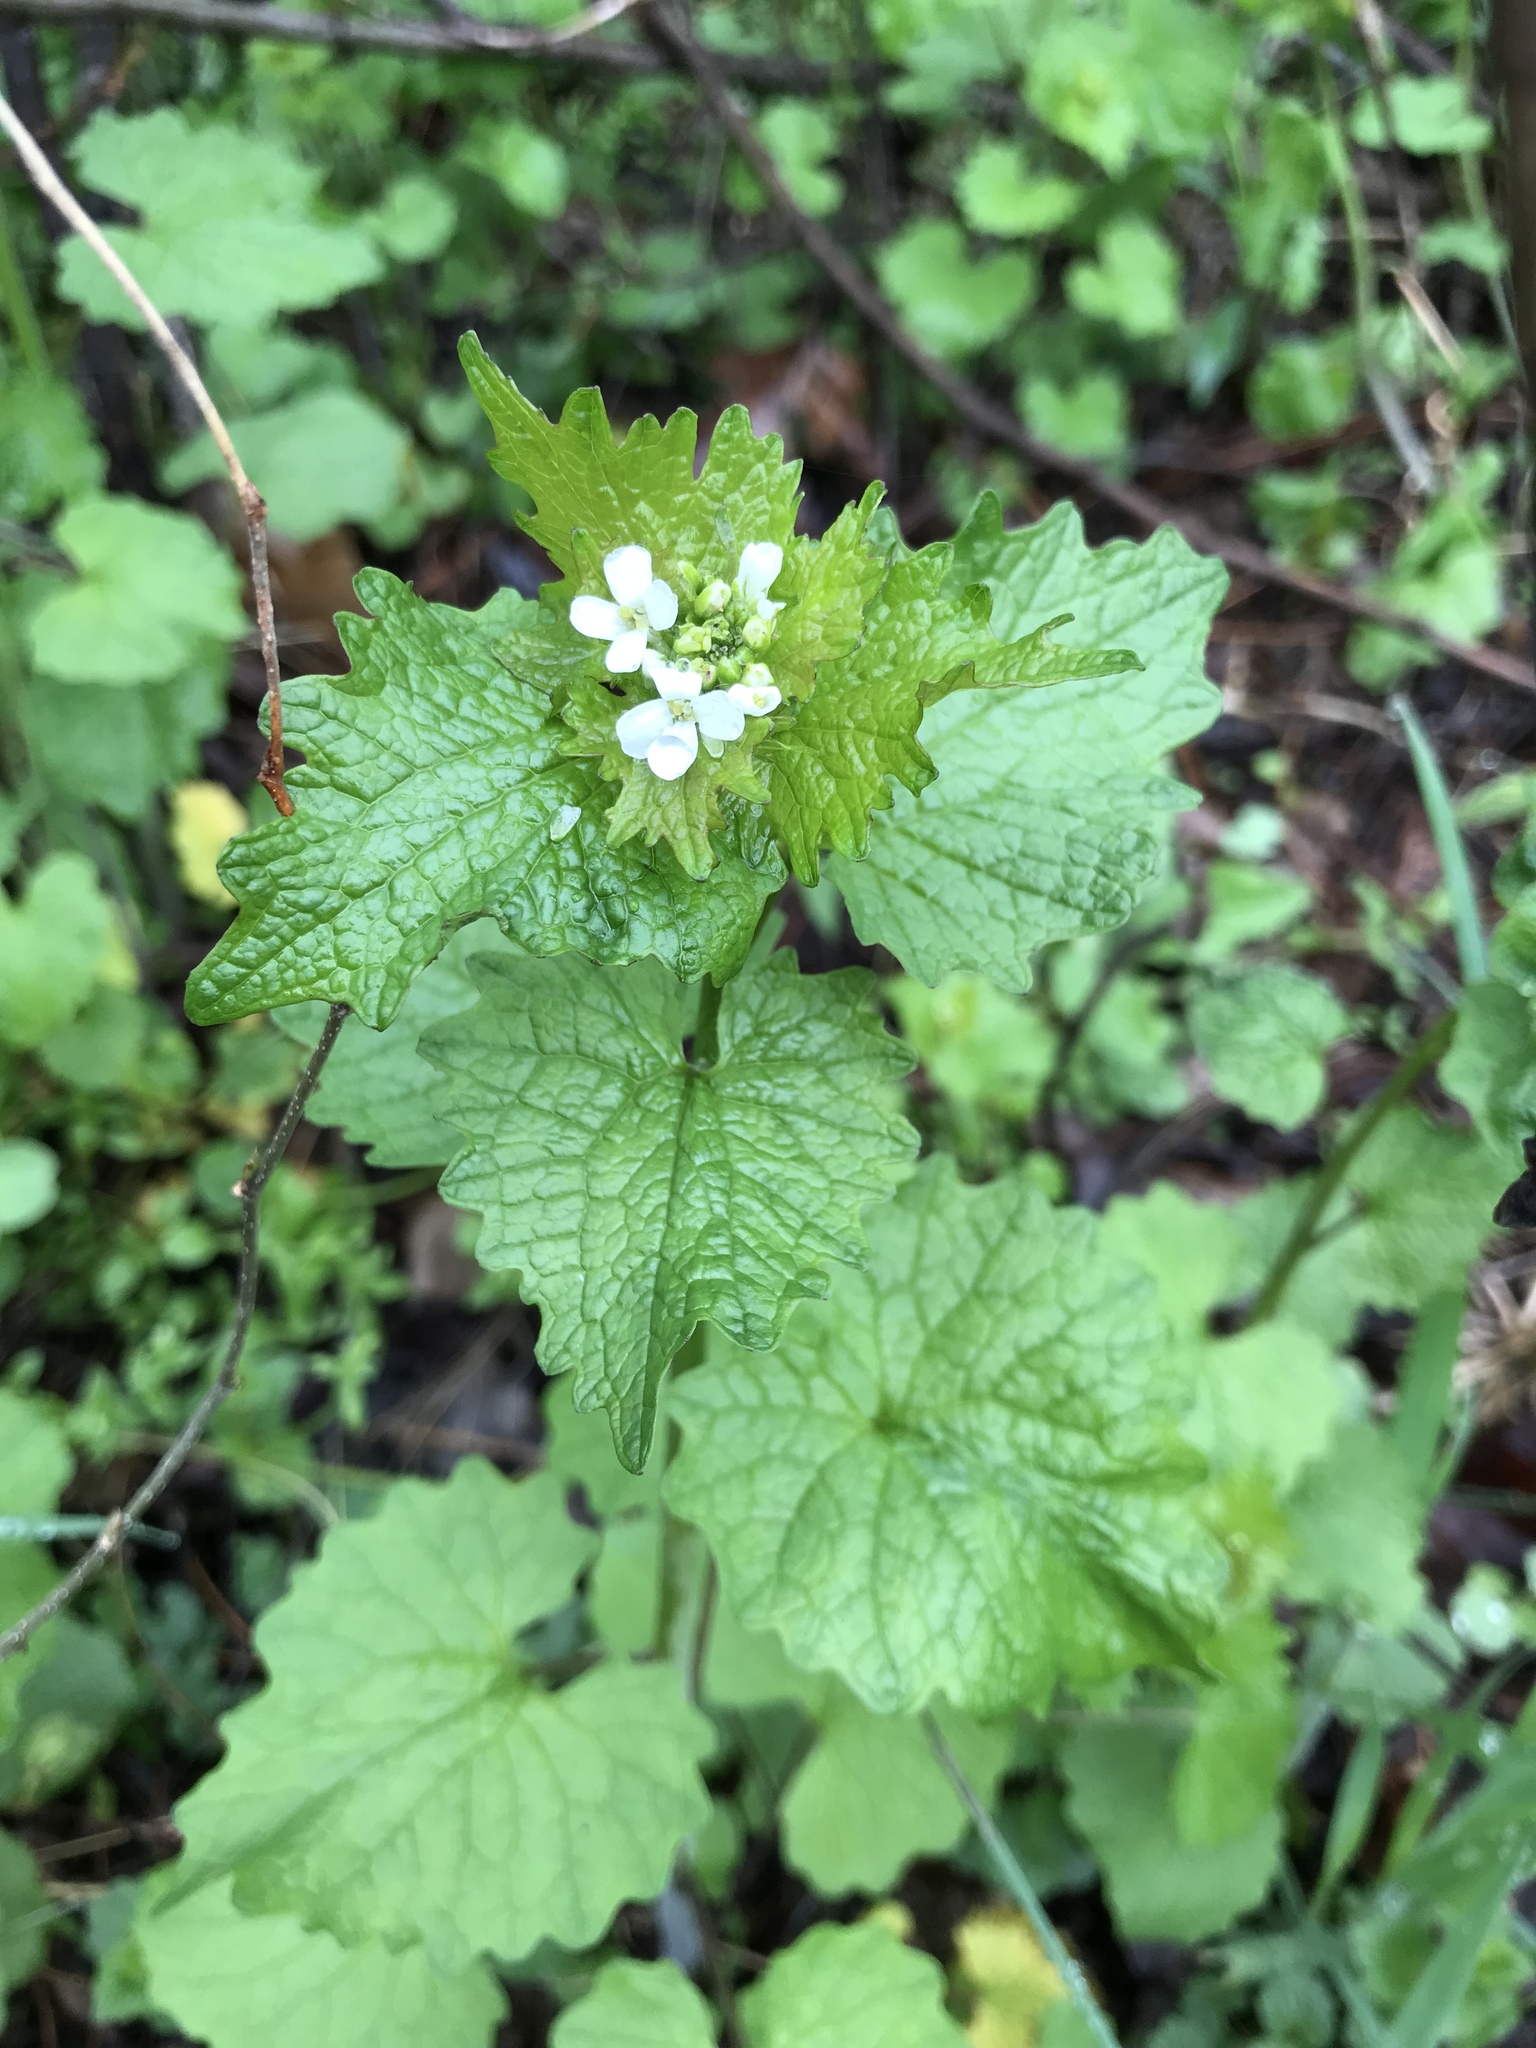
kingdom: Plantae
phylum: Tracheophyta
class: Magnoliopsida
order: Brassicales
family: Brassicaceae
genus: Alliaria
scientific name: Alliaria petiolata
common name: Garlic mustard
